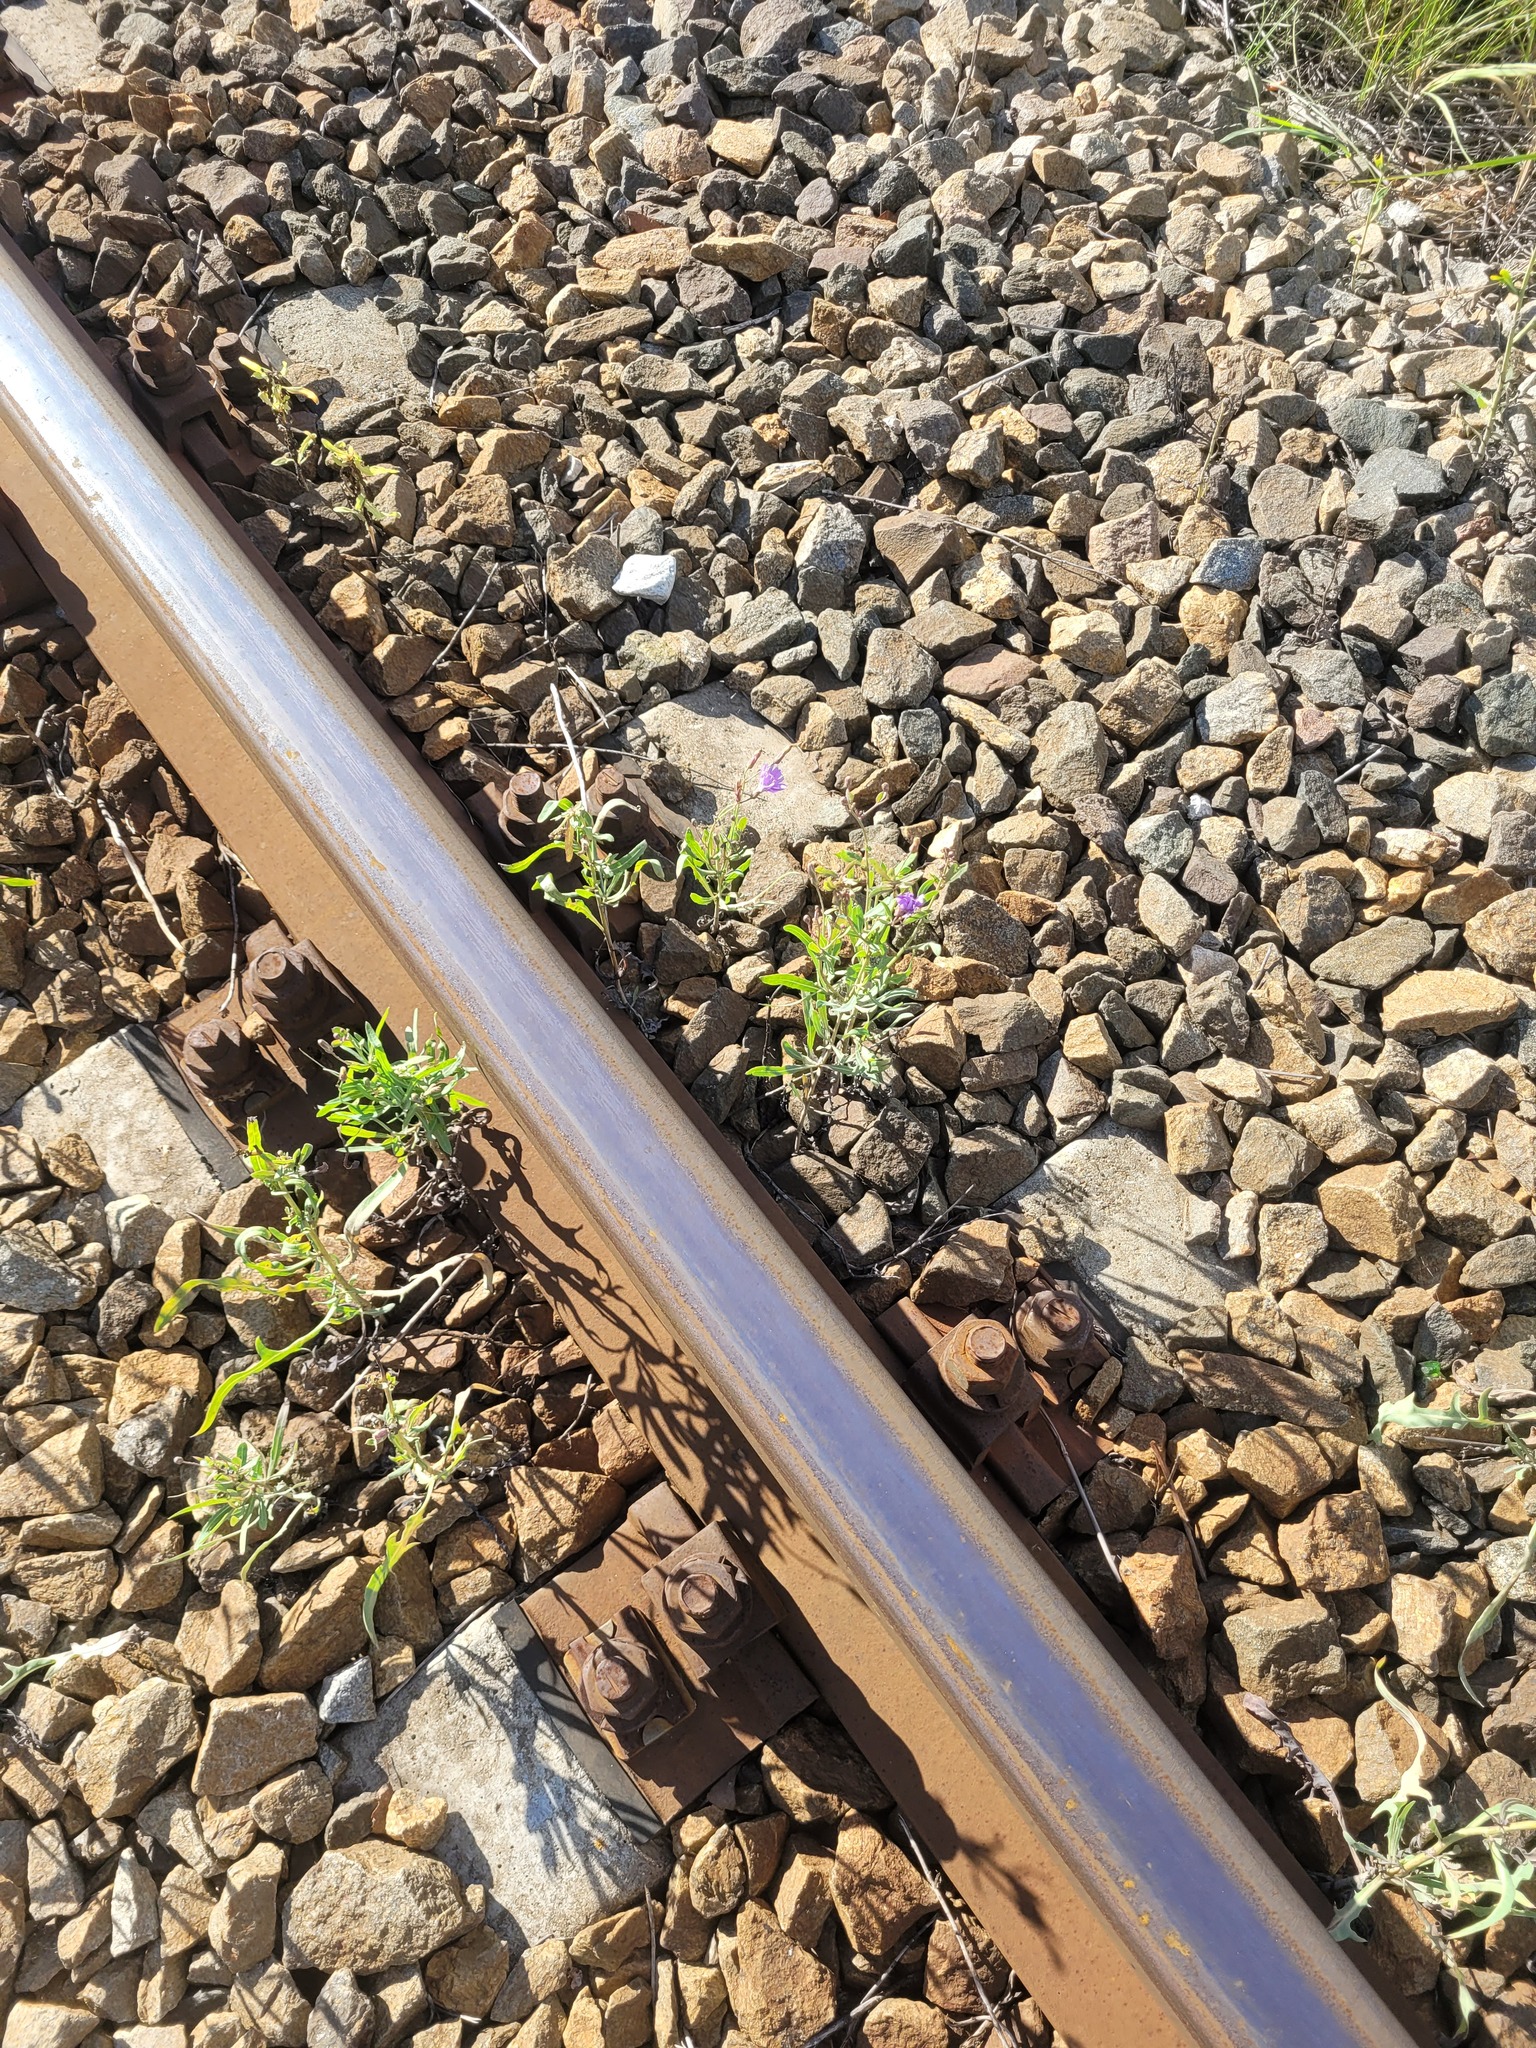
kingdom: Plantae
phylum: Tracheophyta
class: Magnoliopsida
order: Asterales
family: Asteraceae
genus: Lactuca
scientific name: Lactuca tatarica
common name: Blue lettuce
